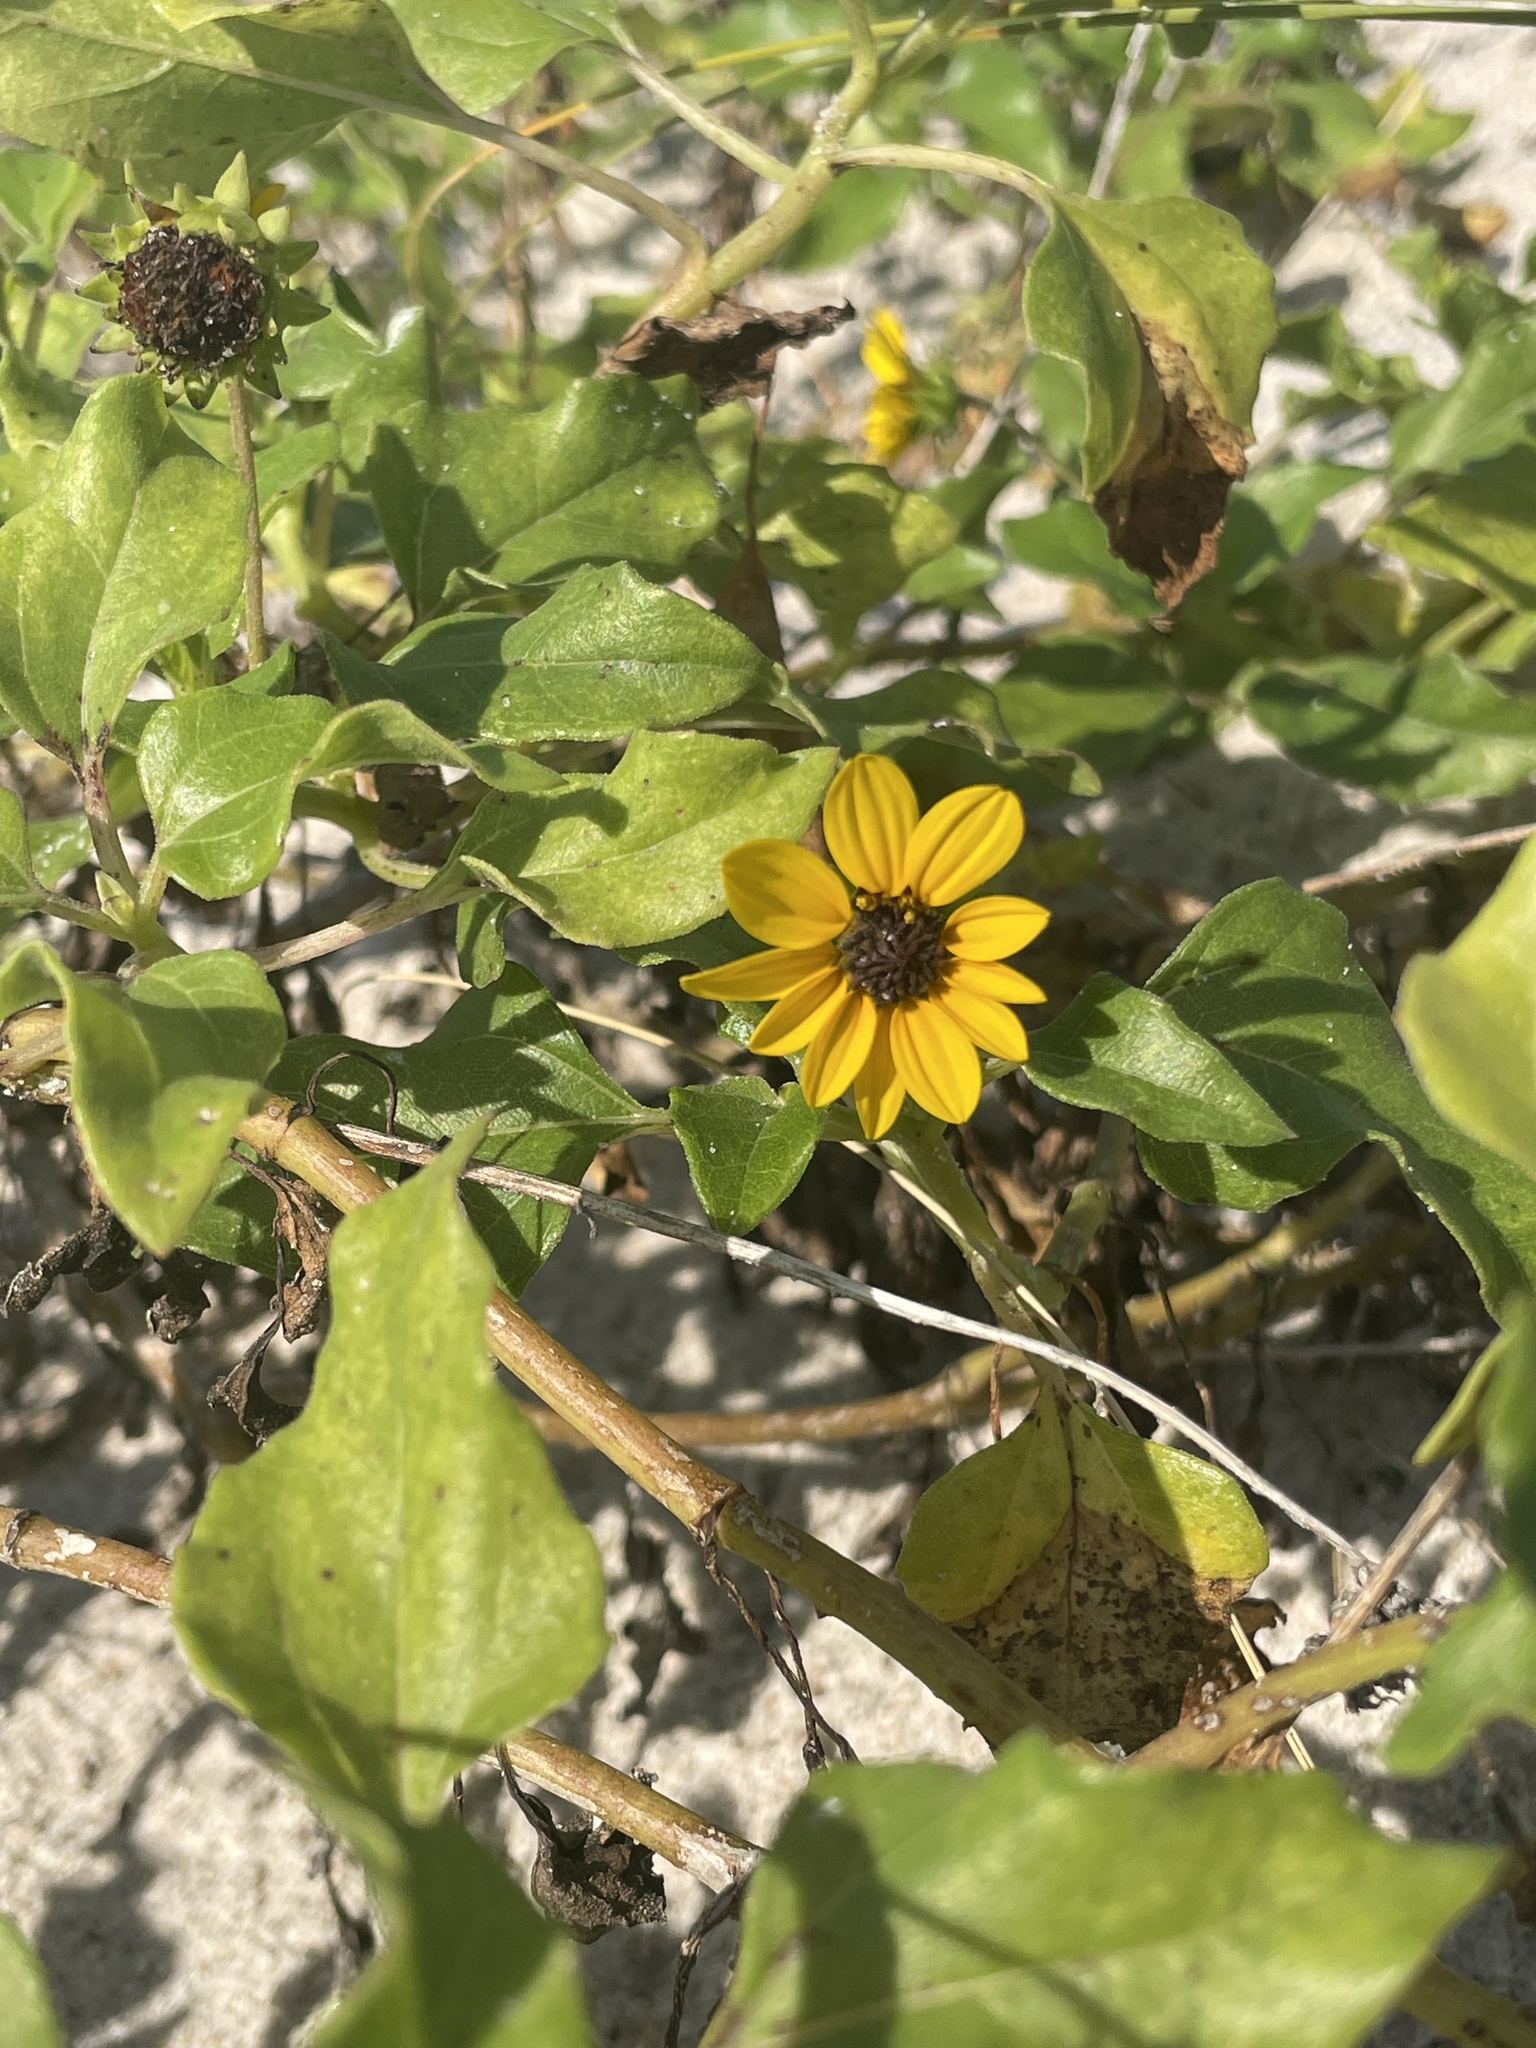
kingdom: Plantae
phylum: Tracheophyta
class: Magnoliopsida
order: Asterales
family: Asteraceae
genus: Helianthus
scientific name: Helianthus debilis
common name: Weak sunflower
